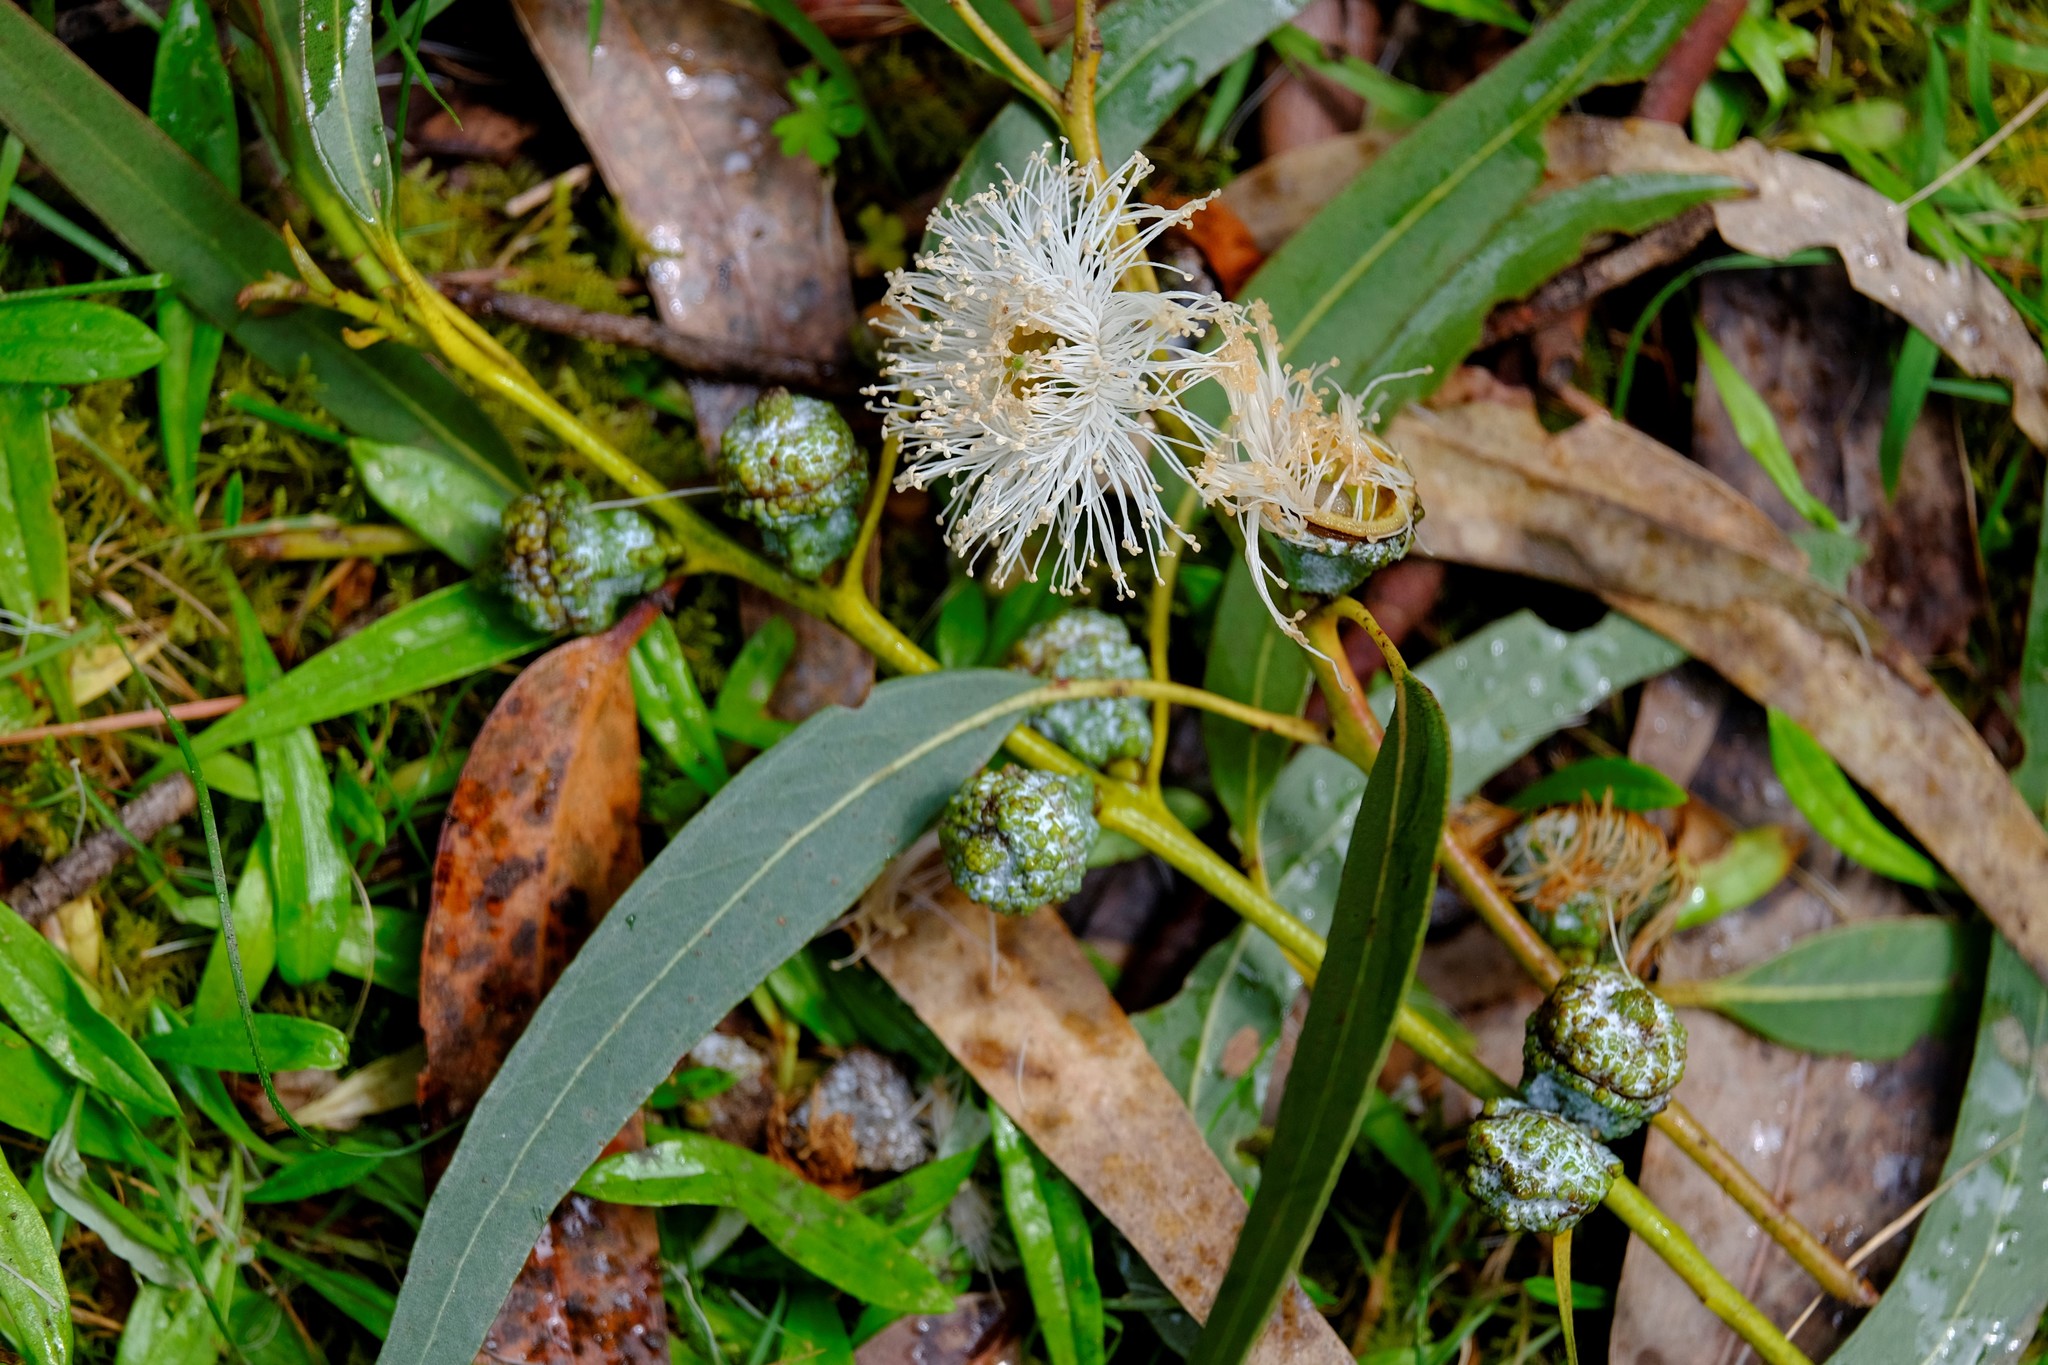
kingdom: Plantae
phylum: Tracheophyta
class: Magnoliopsida
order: Myrtales
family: Myrtaceae
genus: Eucalyptus
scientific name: Eucalyptus globulus
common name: Southern blue-gum
